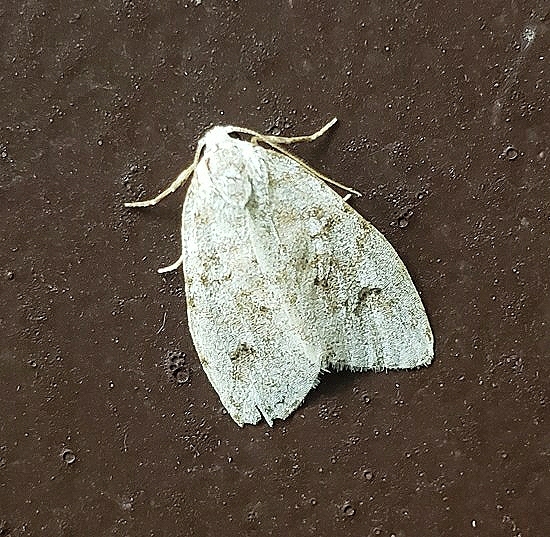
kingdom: Animalia
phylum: Arthropoda
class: Insecta
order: Lepidoptera
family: Erebidae
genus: Clemensia
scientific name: Clemensia albata
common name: Little white lichen moth
